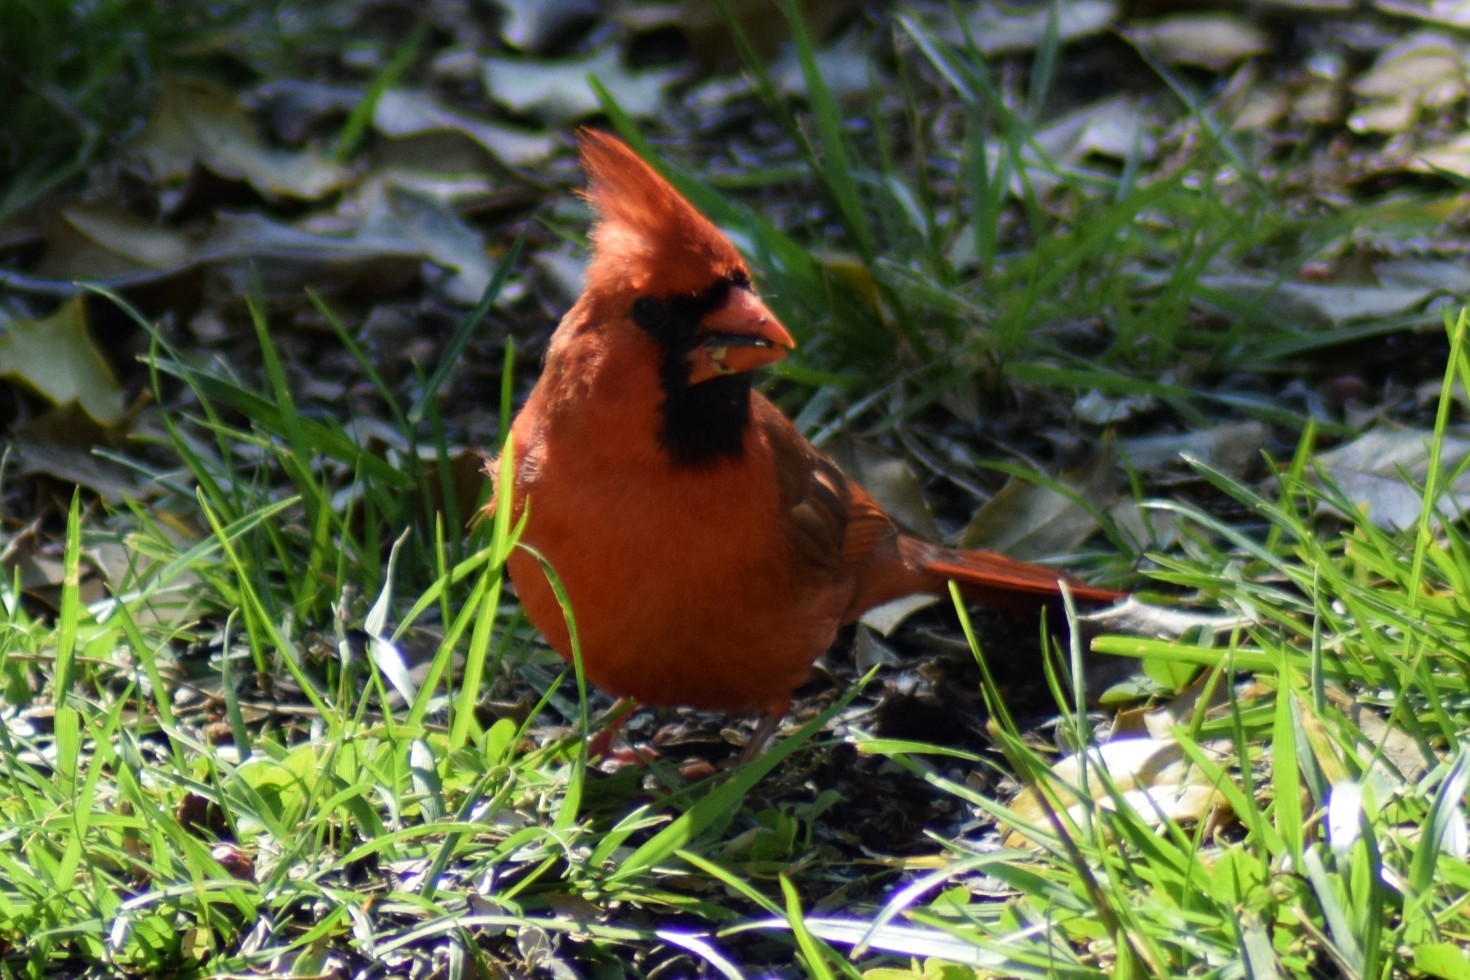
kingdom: Animalia
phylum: Chordata
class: Aves
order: Passeriformes
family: Cardinalidae
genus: Cardinalis
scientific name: Cardinalis cardinalis
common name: Northern cardinal
